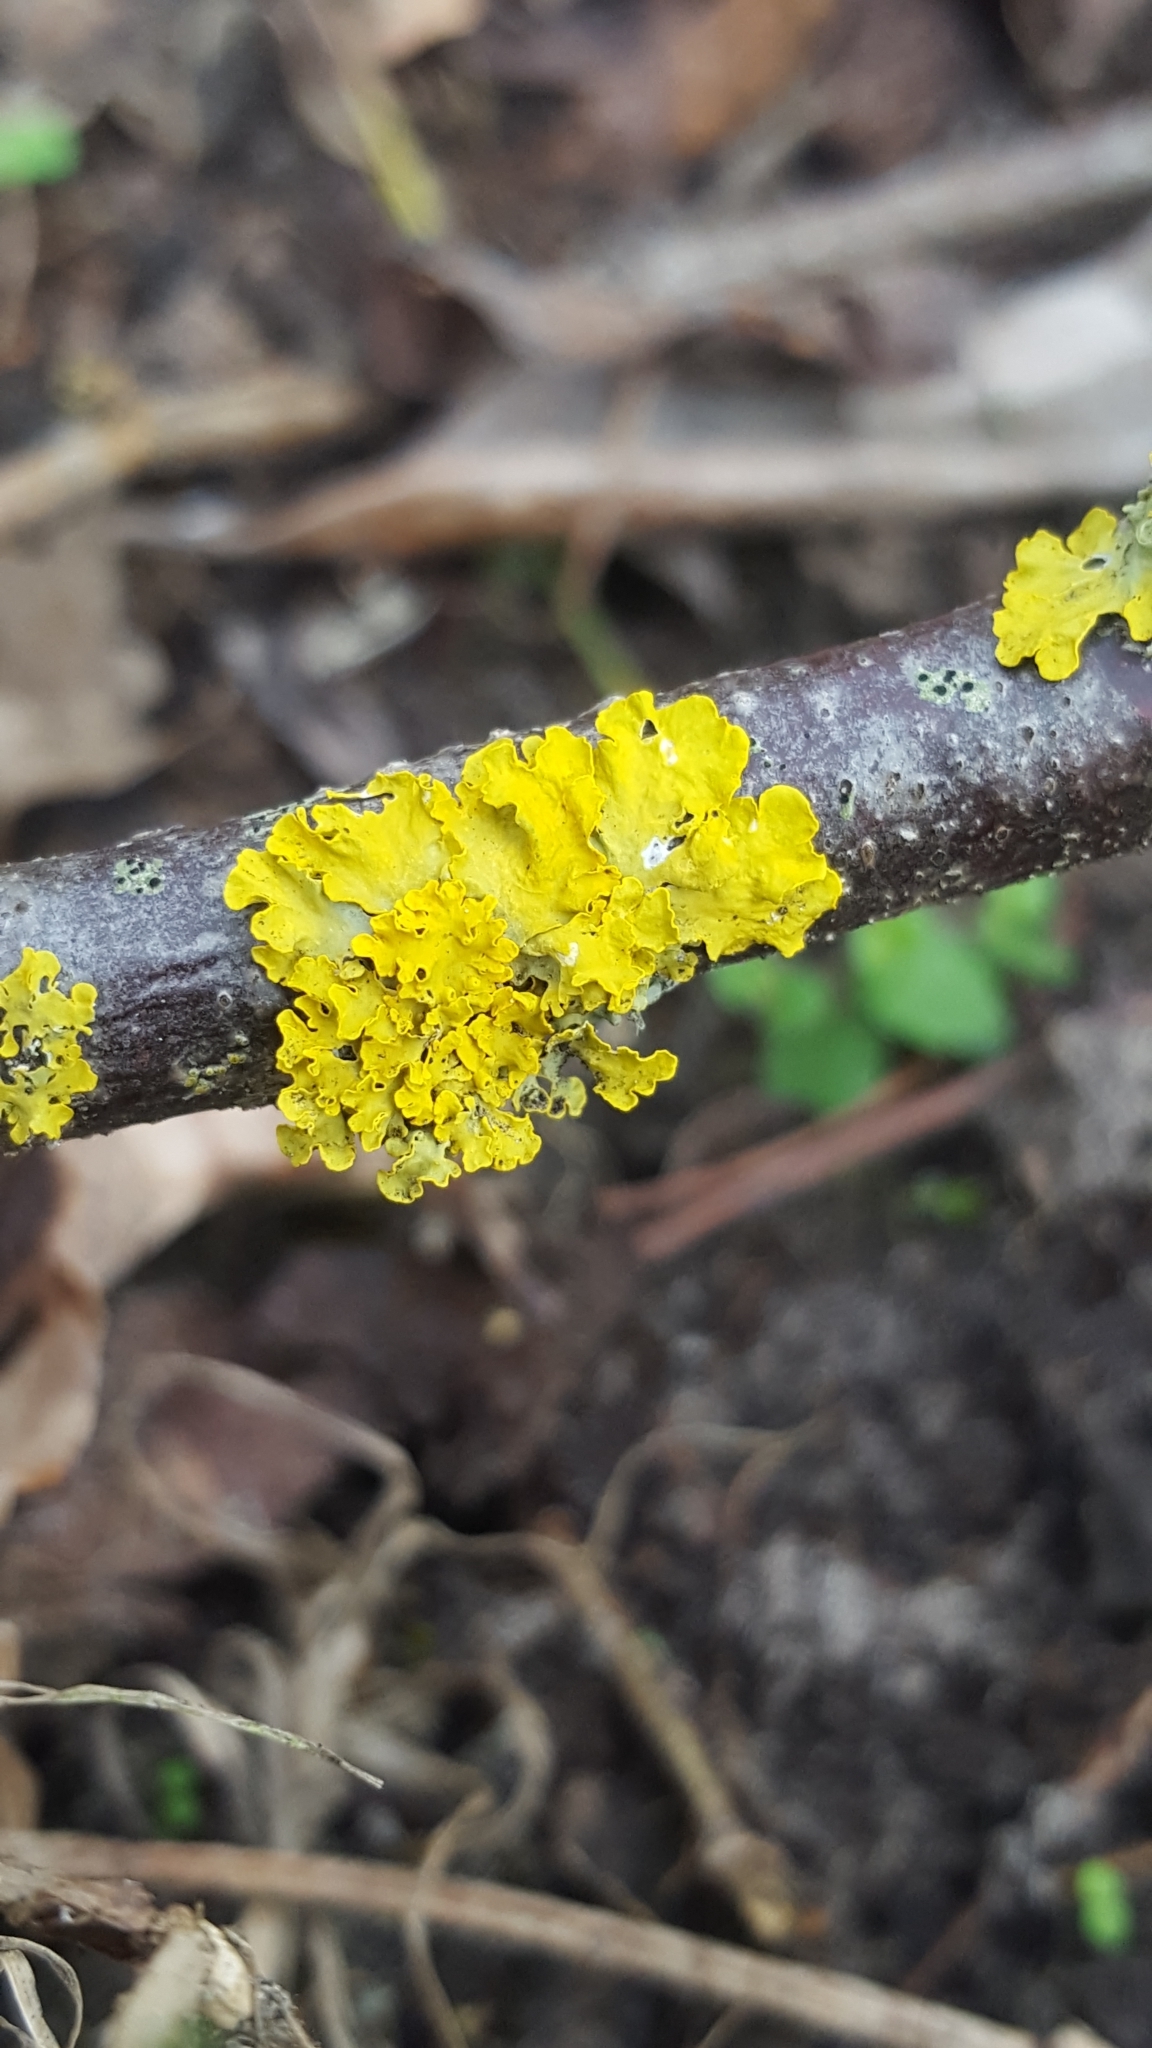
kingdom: Fungi
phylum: Ascomycota
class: Lecanoromycetes
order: Teloschistales
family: Teloschistaceae
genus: Xanthoria
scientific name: Xanthoria parietina
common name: Common orange lichen
